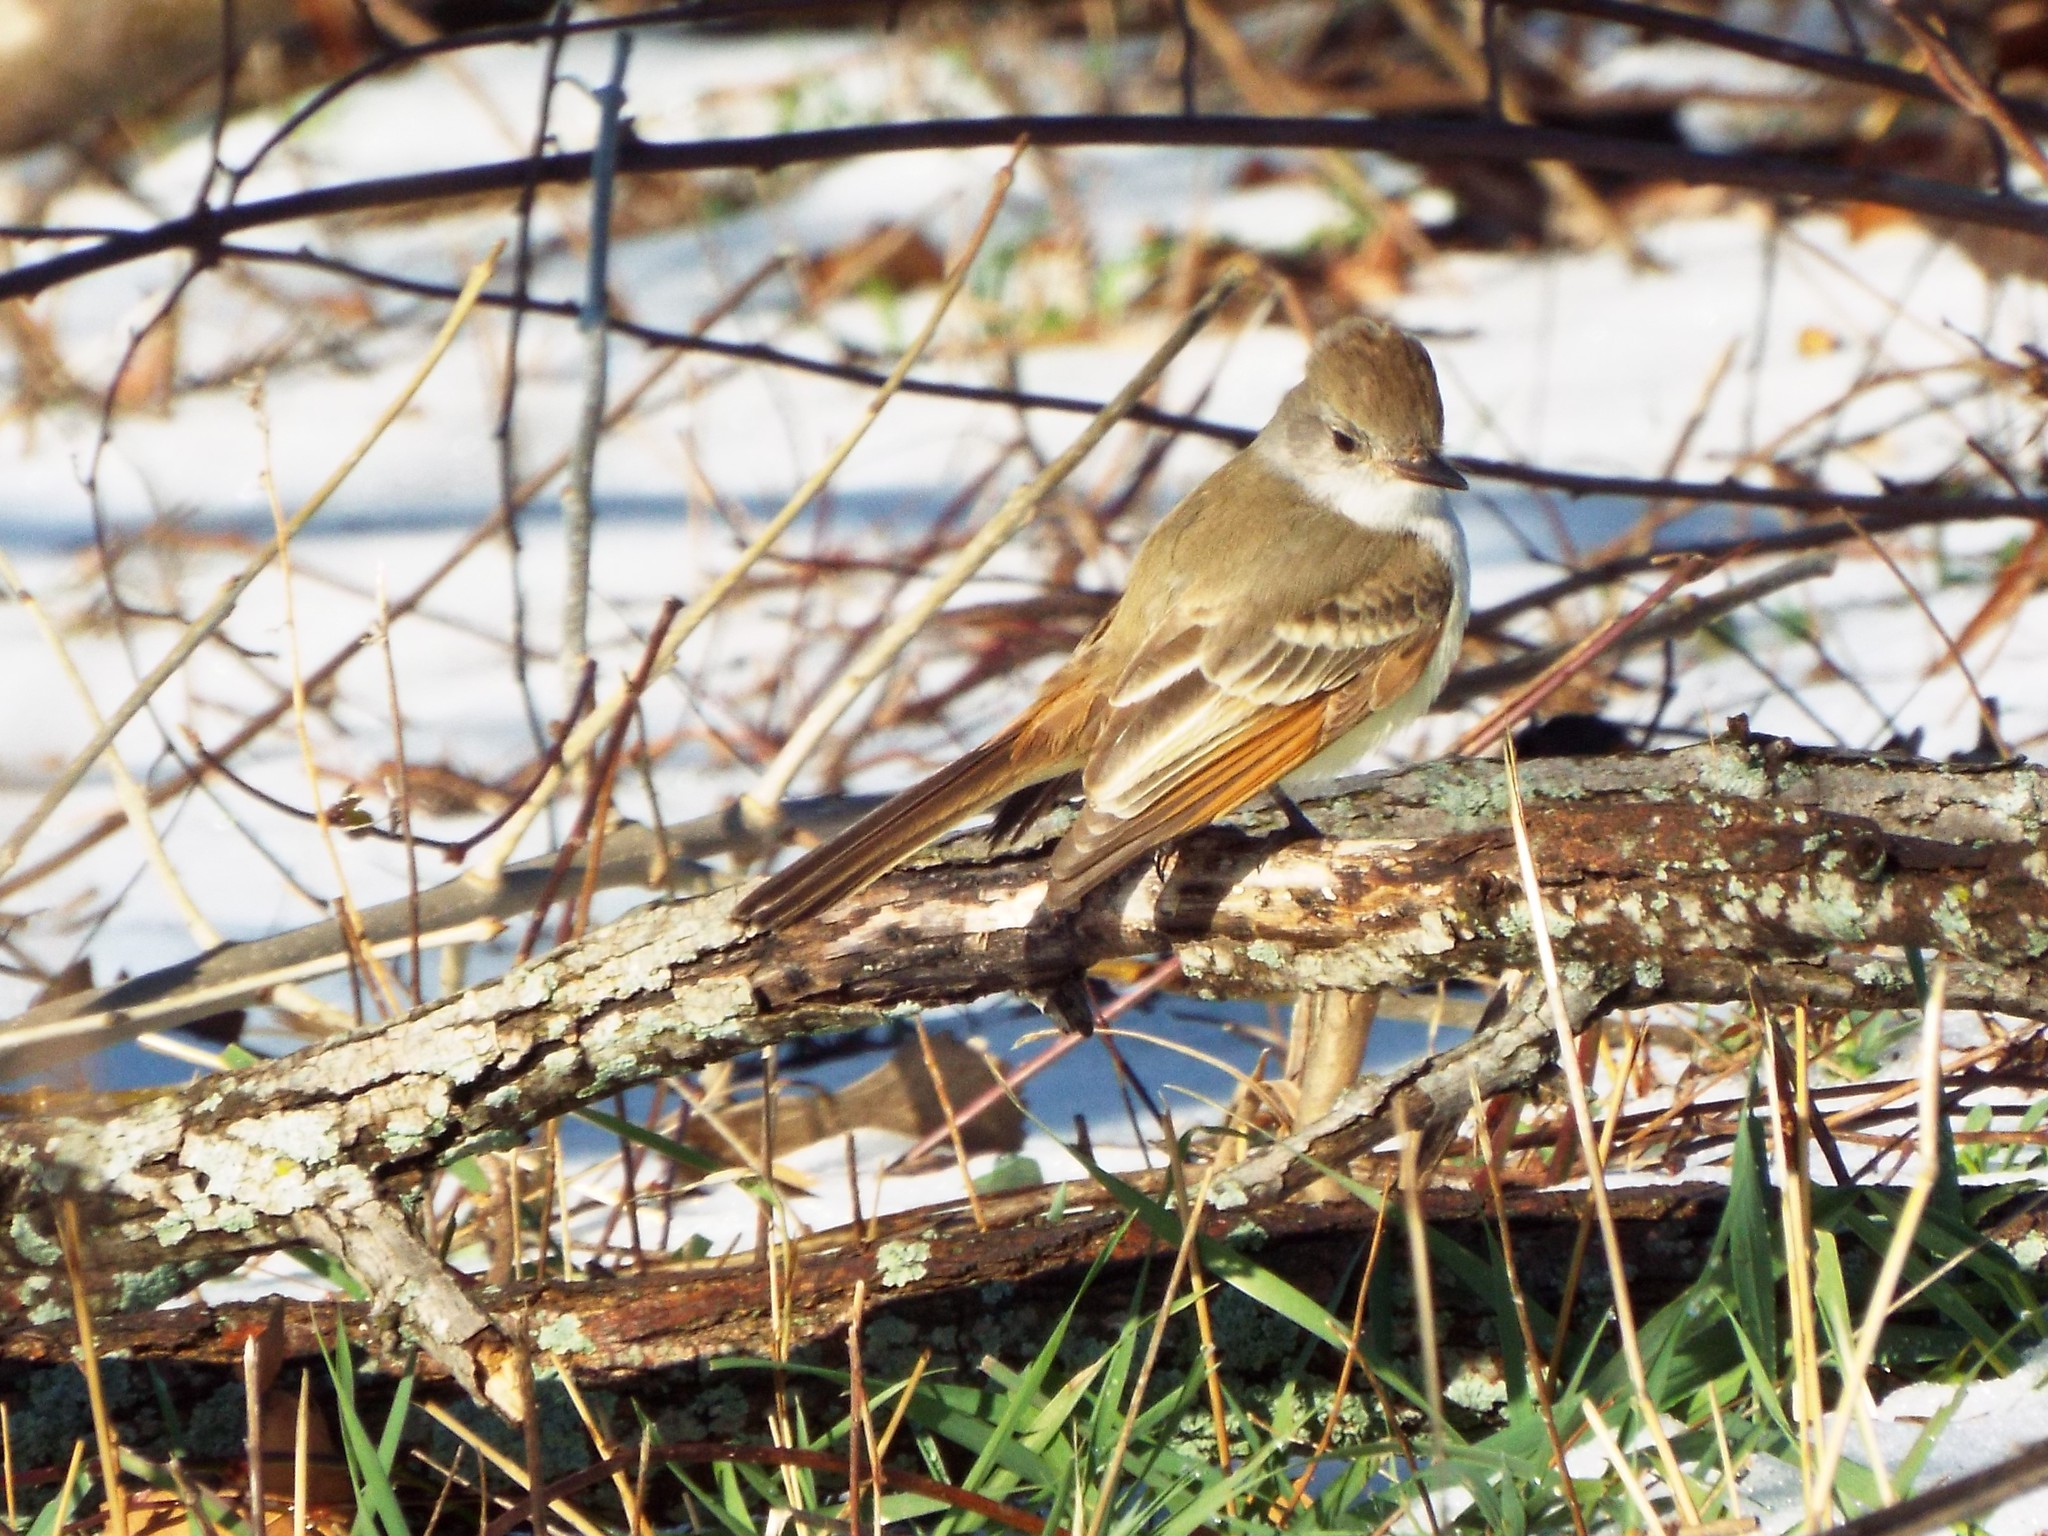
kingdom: Animalia
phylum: Chordata
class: Aves
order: Passeriformes
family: Tyrannidae
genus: Myiarchus
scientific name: Myiarchus cinerascens
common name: Ash-throated flycatcher
